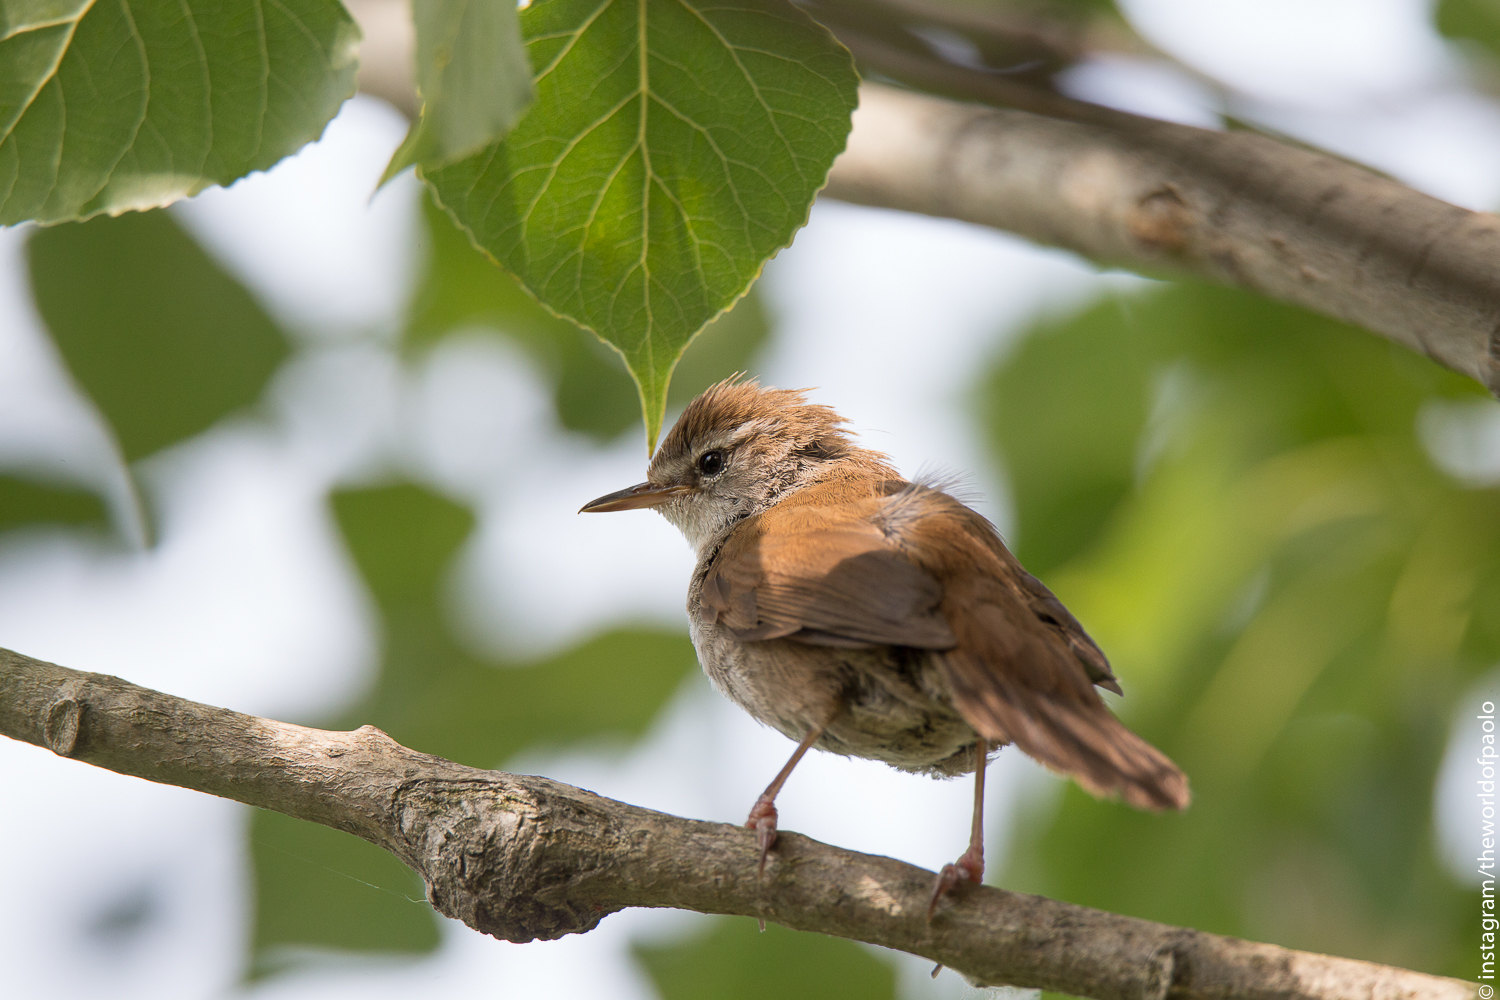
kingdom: Animalia
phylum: Chordata
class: Aves
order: Passeriformes
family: Cettiidae
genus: Cettia
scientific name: Cettia cetti
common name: Cetti's warbler
